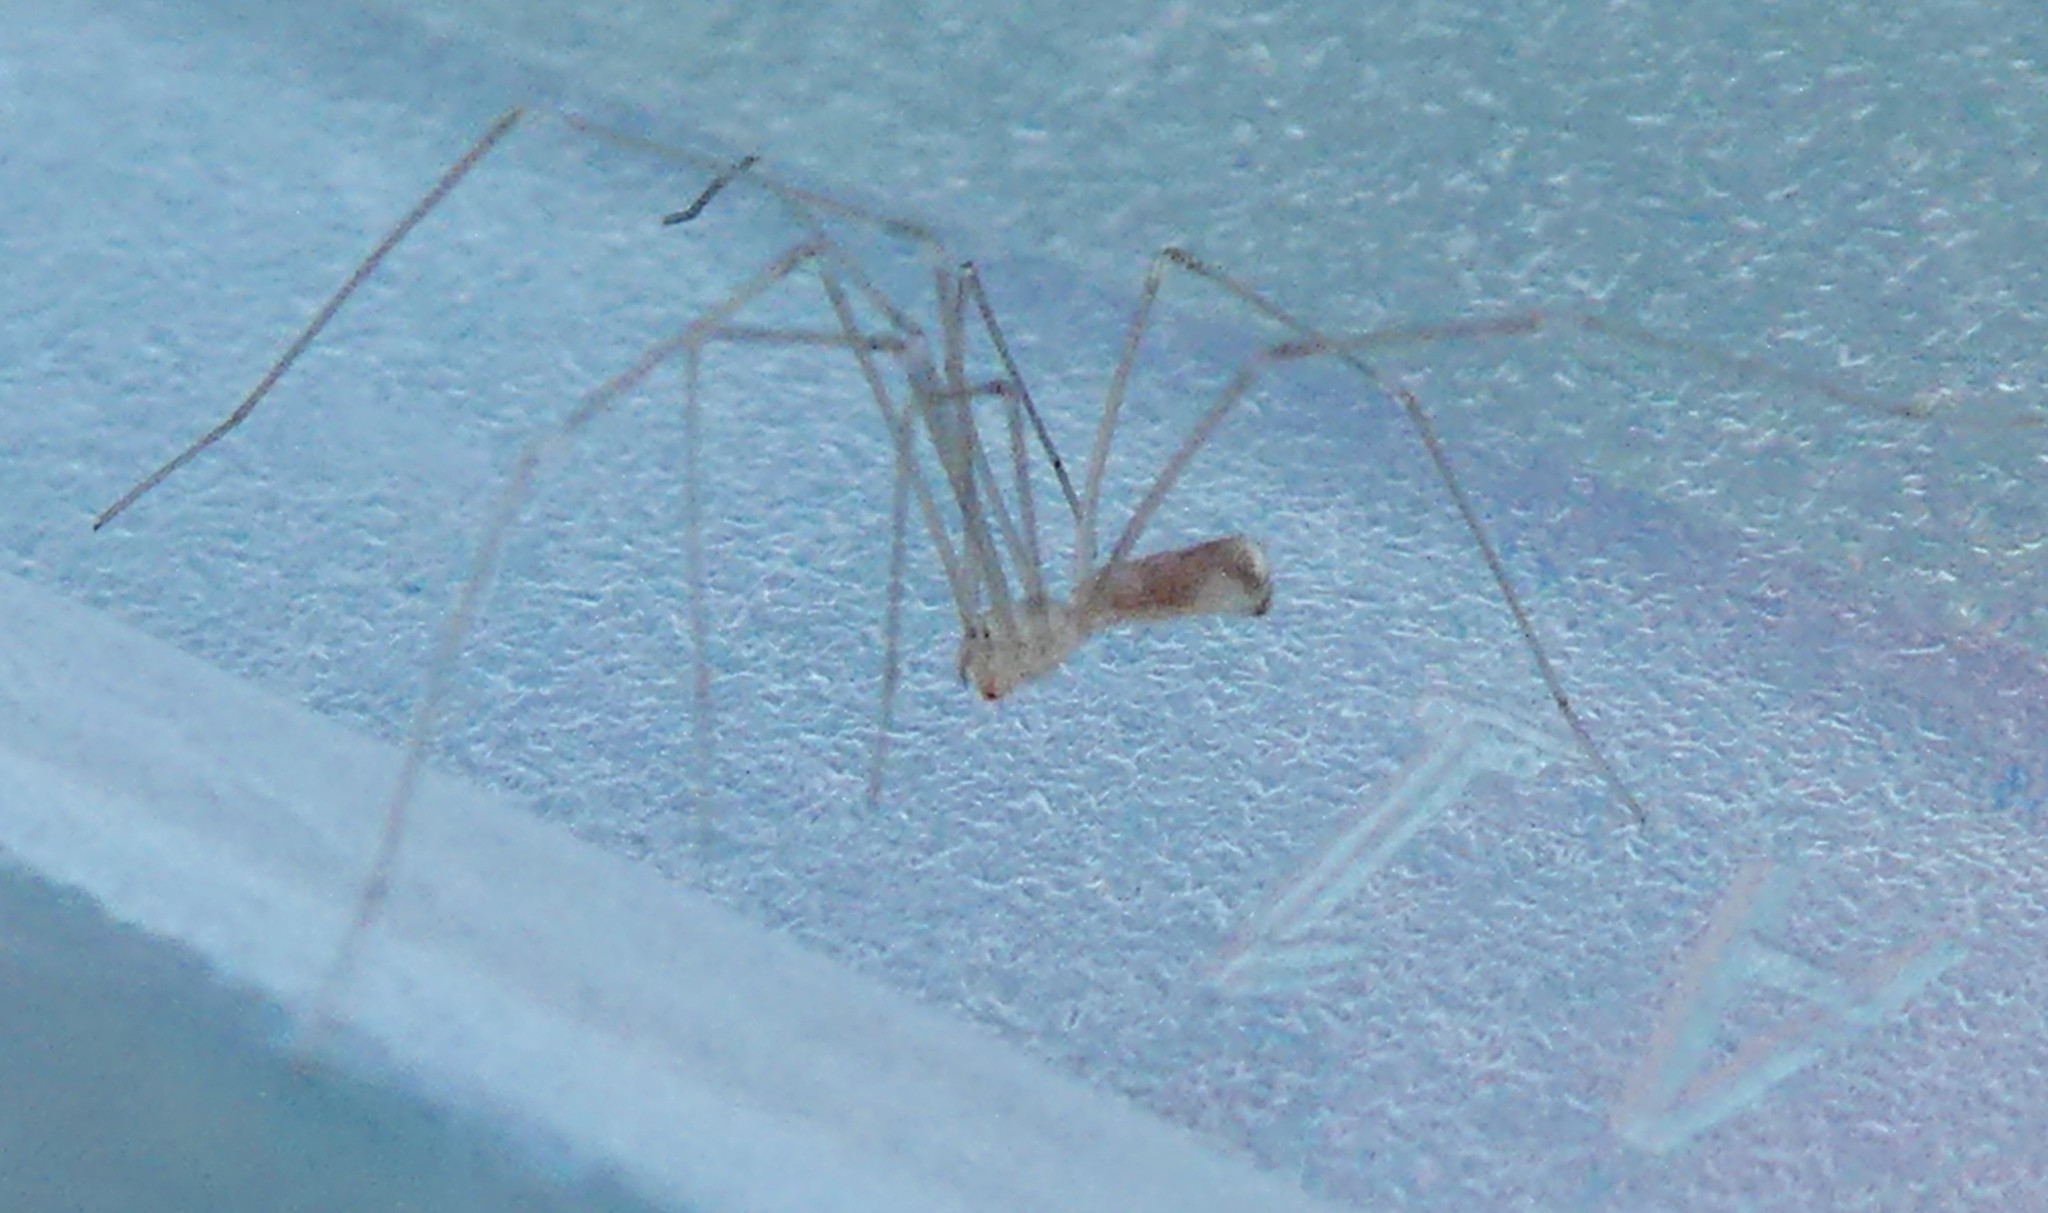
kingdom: Animalia
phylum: Arthropoda
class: Arachnida
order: Araneae
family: Pholcidae
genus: Pholcus
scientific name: Pholcus phalangioides
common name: Longbodied cellar spider
